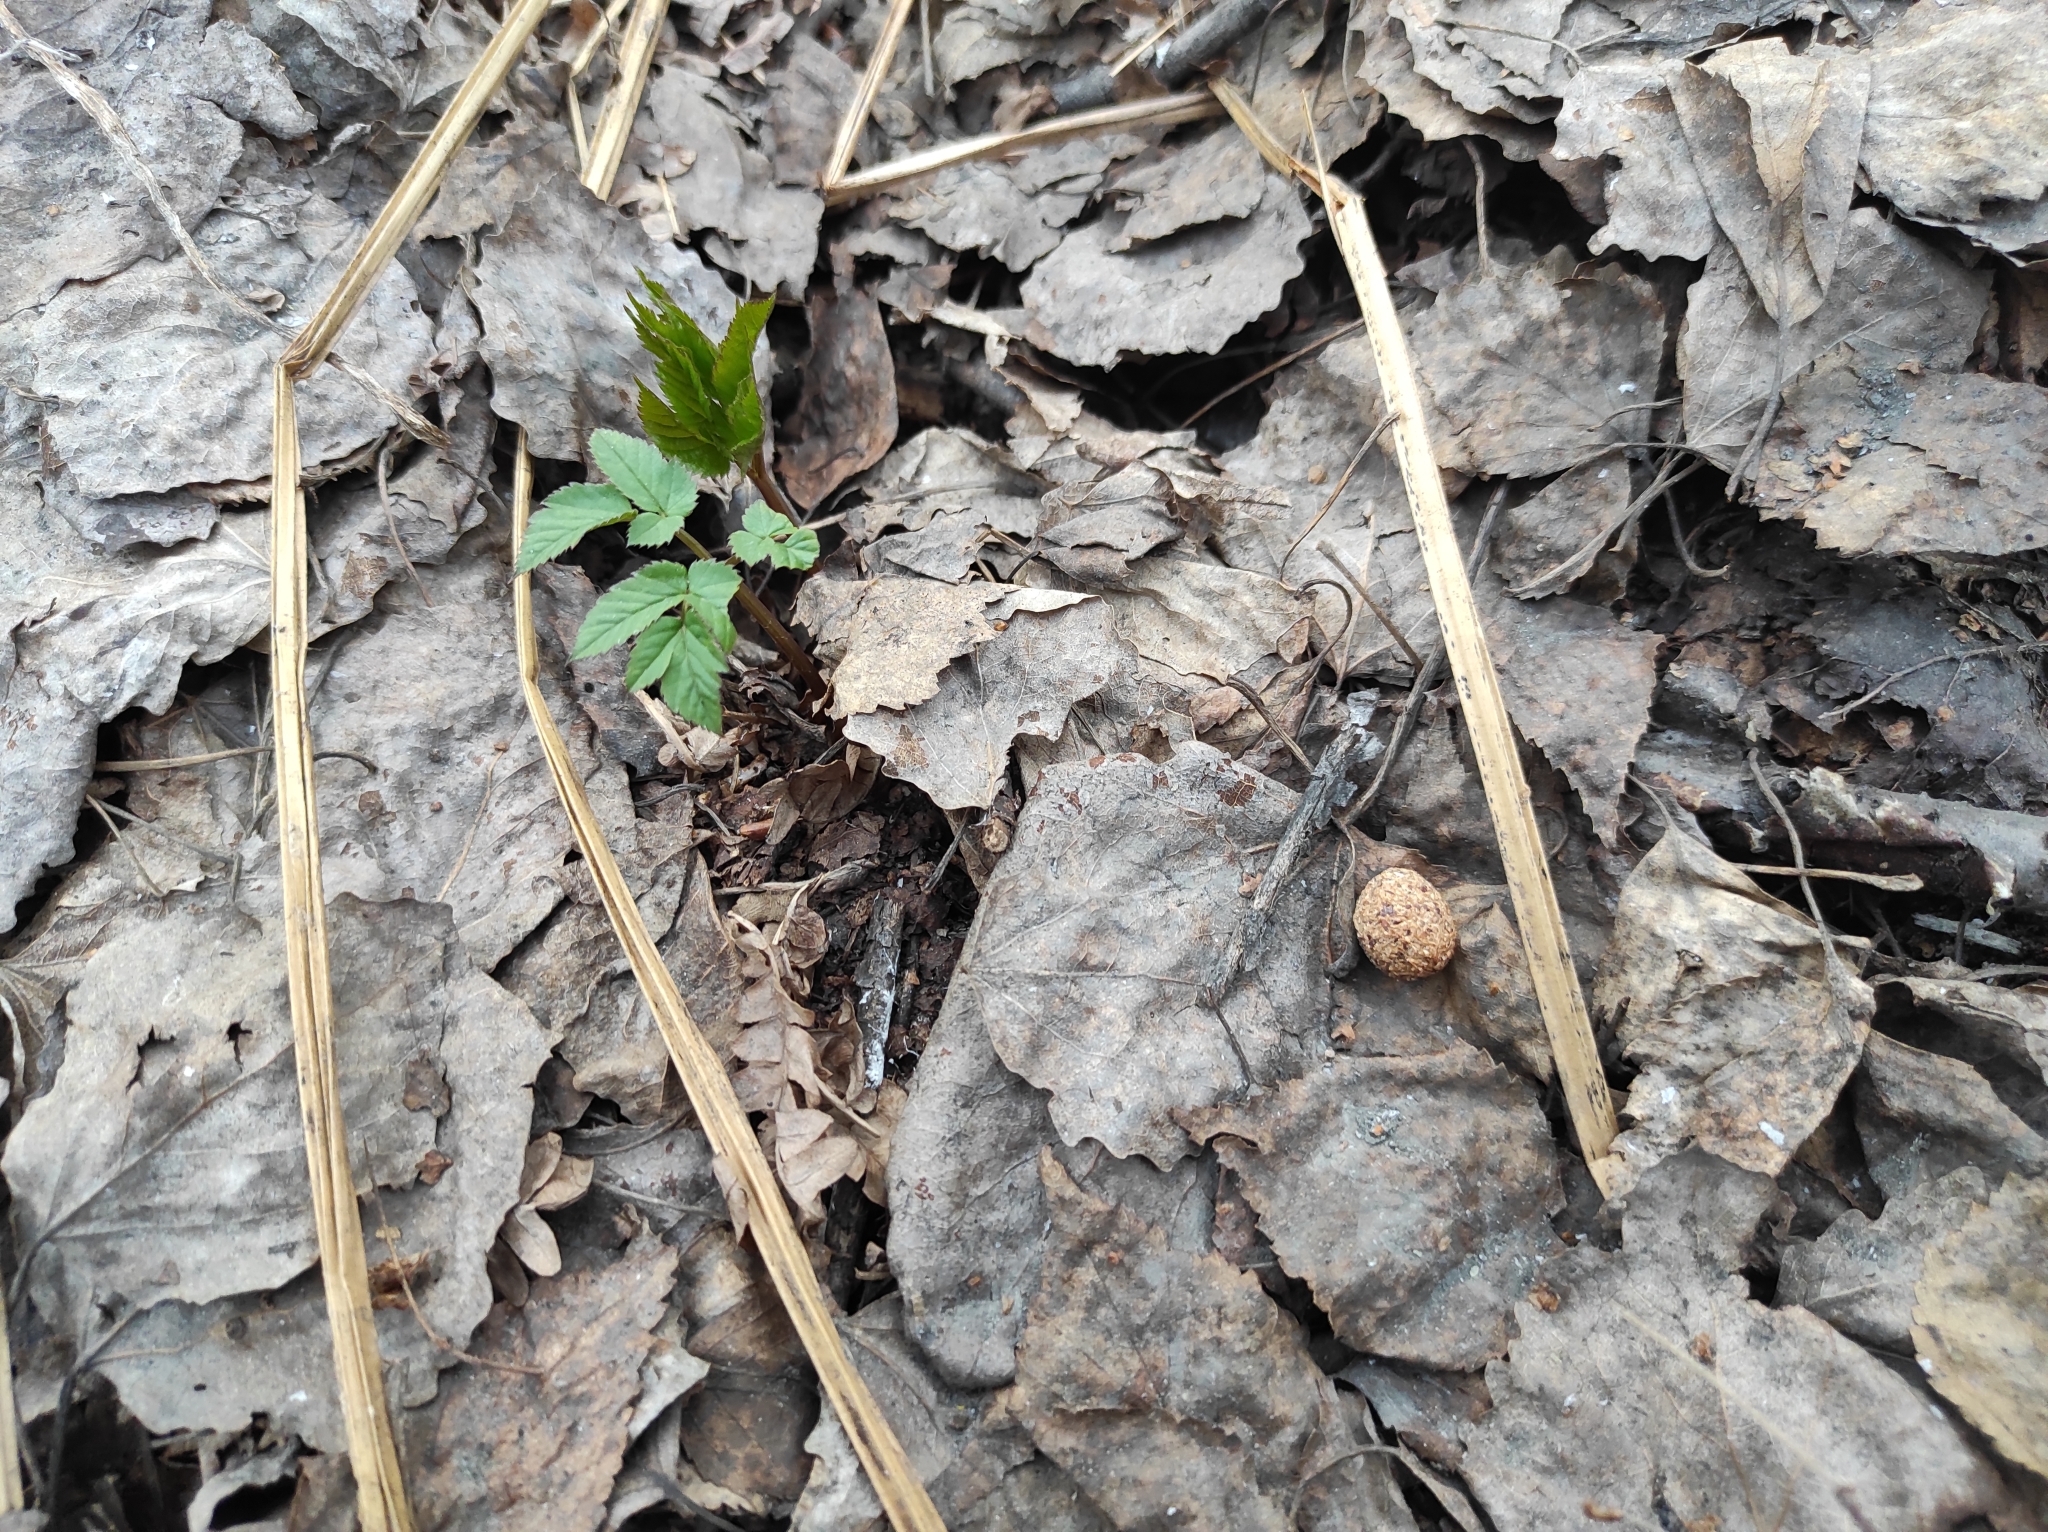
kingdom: Plantae
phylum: Tracheophyta
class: Magnoliopsida
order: Apiales
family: Apiaceae
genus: Aegopodium
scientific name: Aegopodium podagraria
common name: Ground-elder
